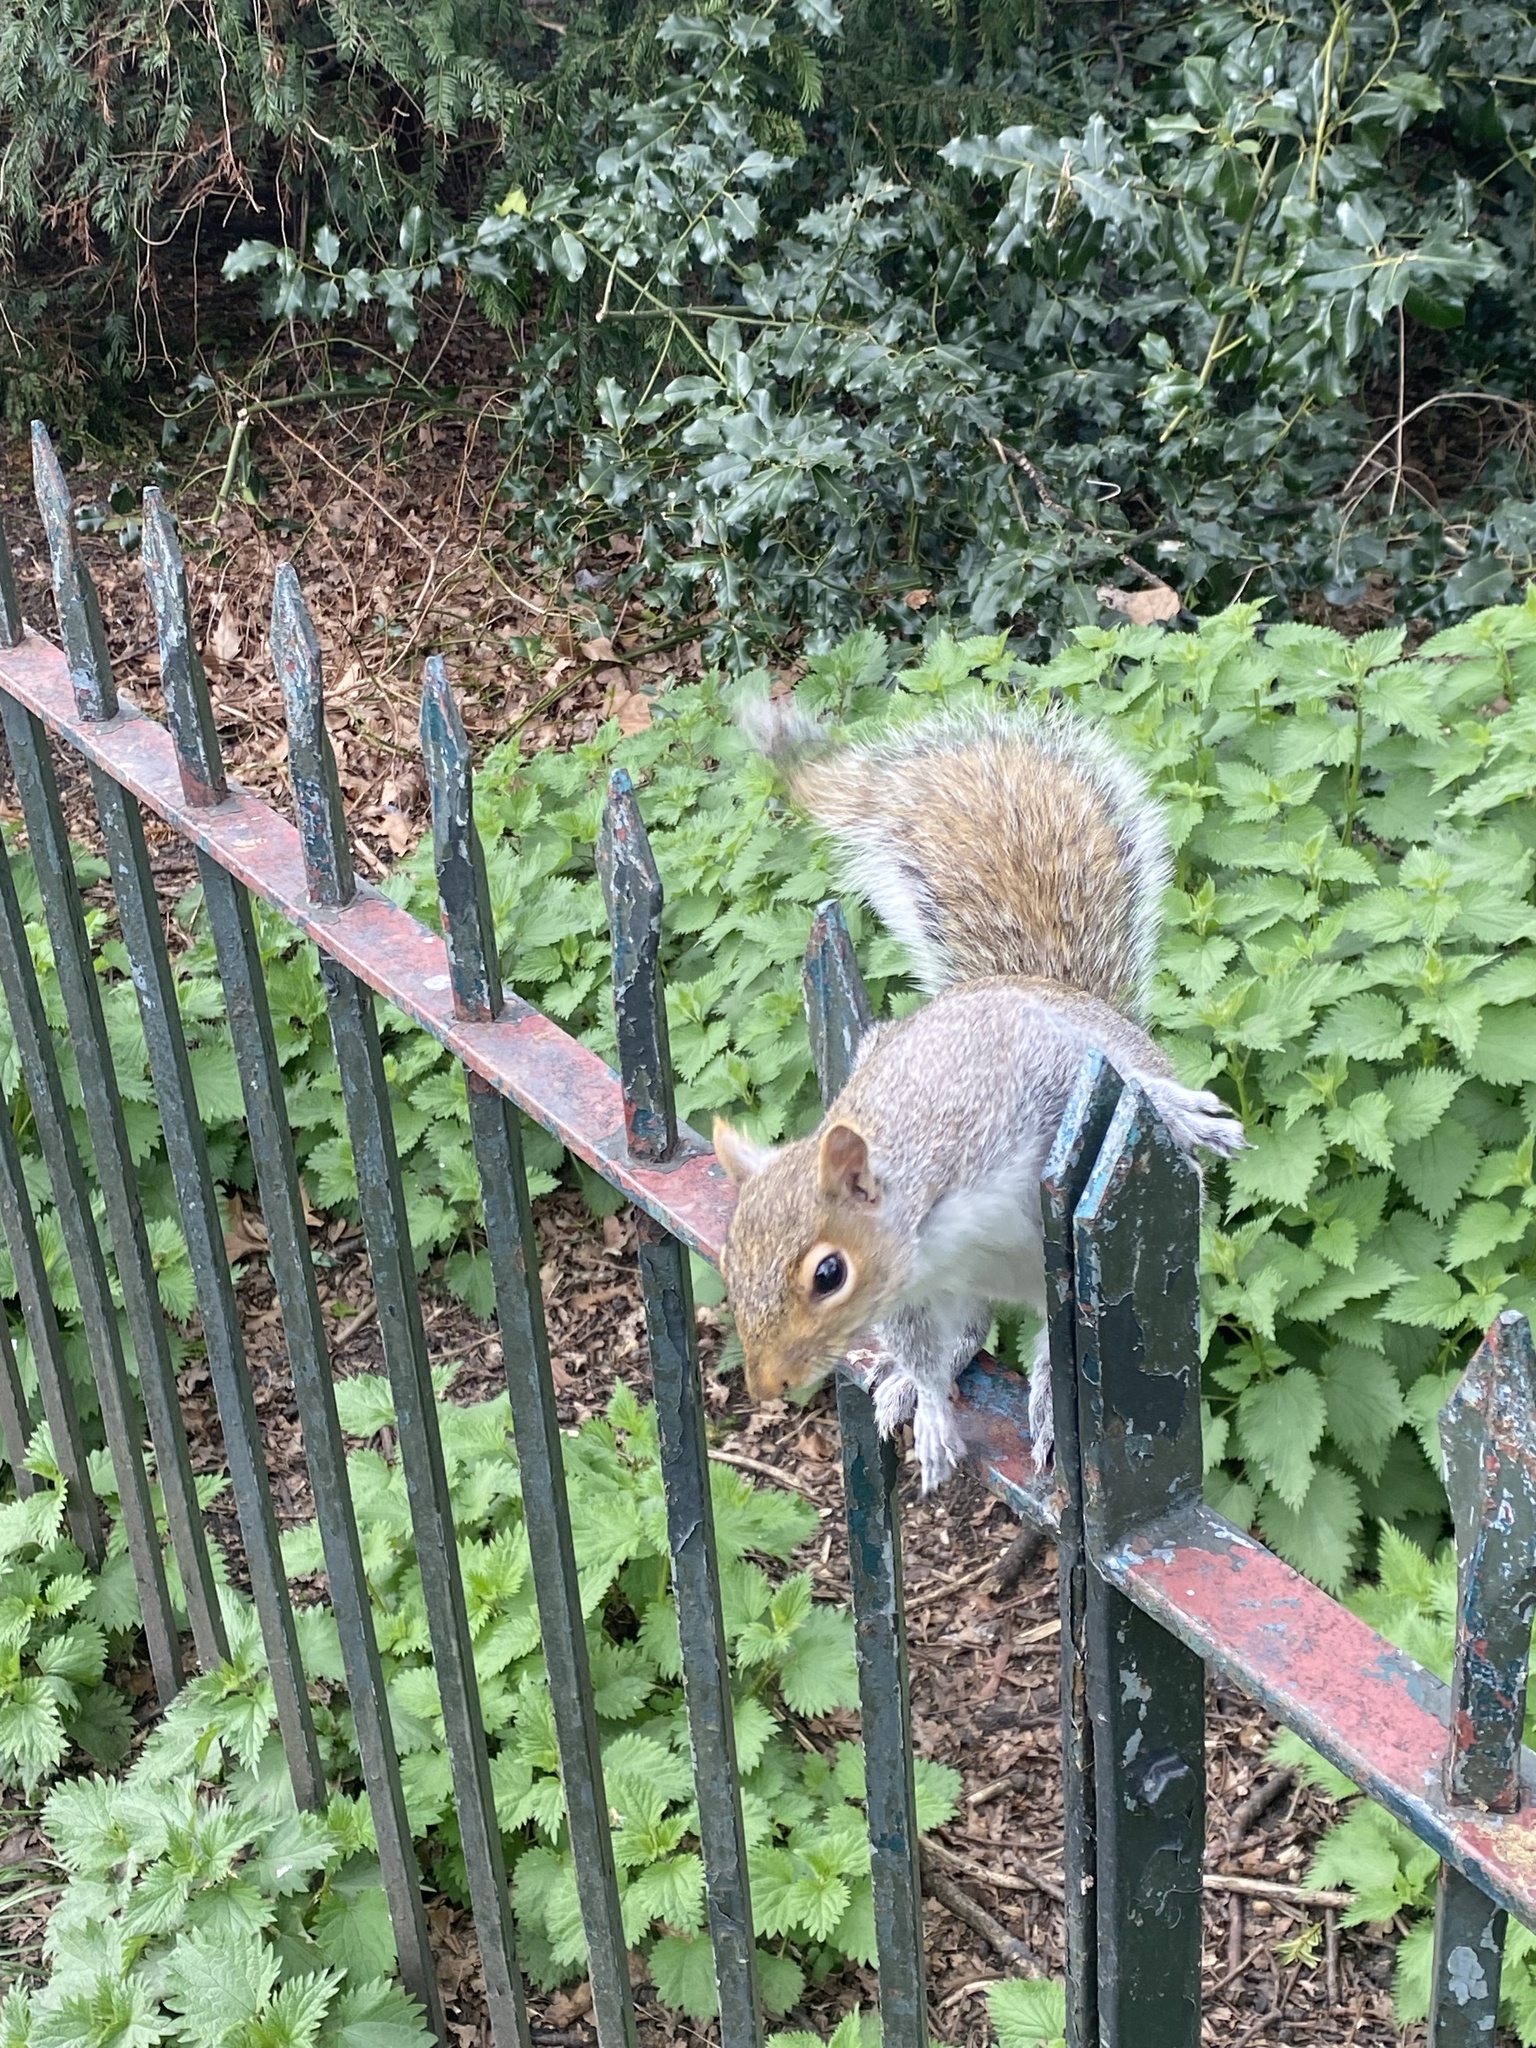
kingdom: Animalia
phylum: Chordata
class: Mammalia
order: Rodentia
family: Sciuridae
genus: Sciurus
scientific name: Sciurus carolinensis
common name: Eastern gray squirrel
